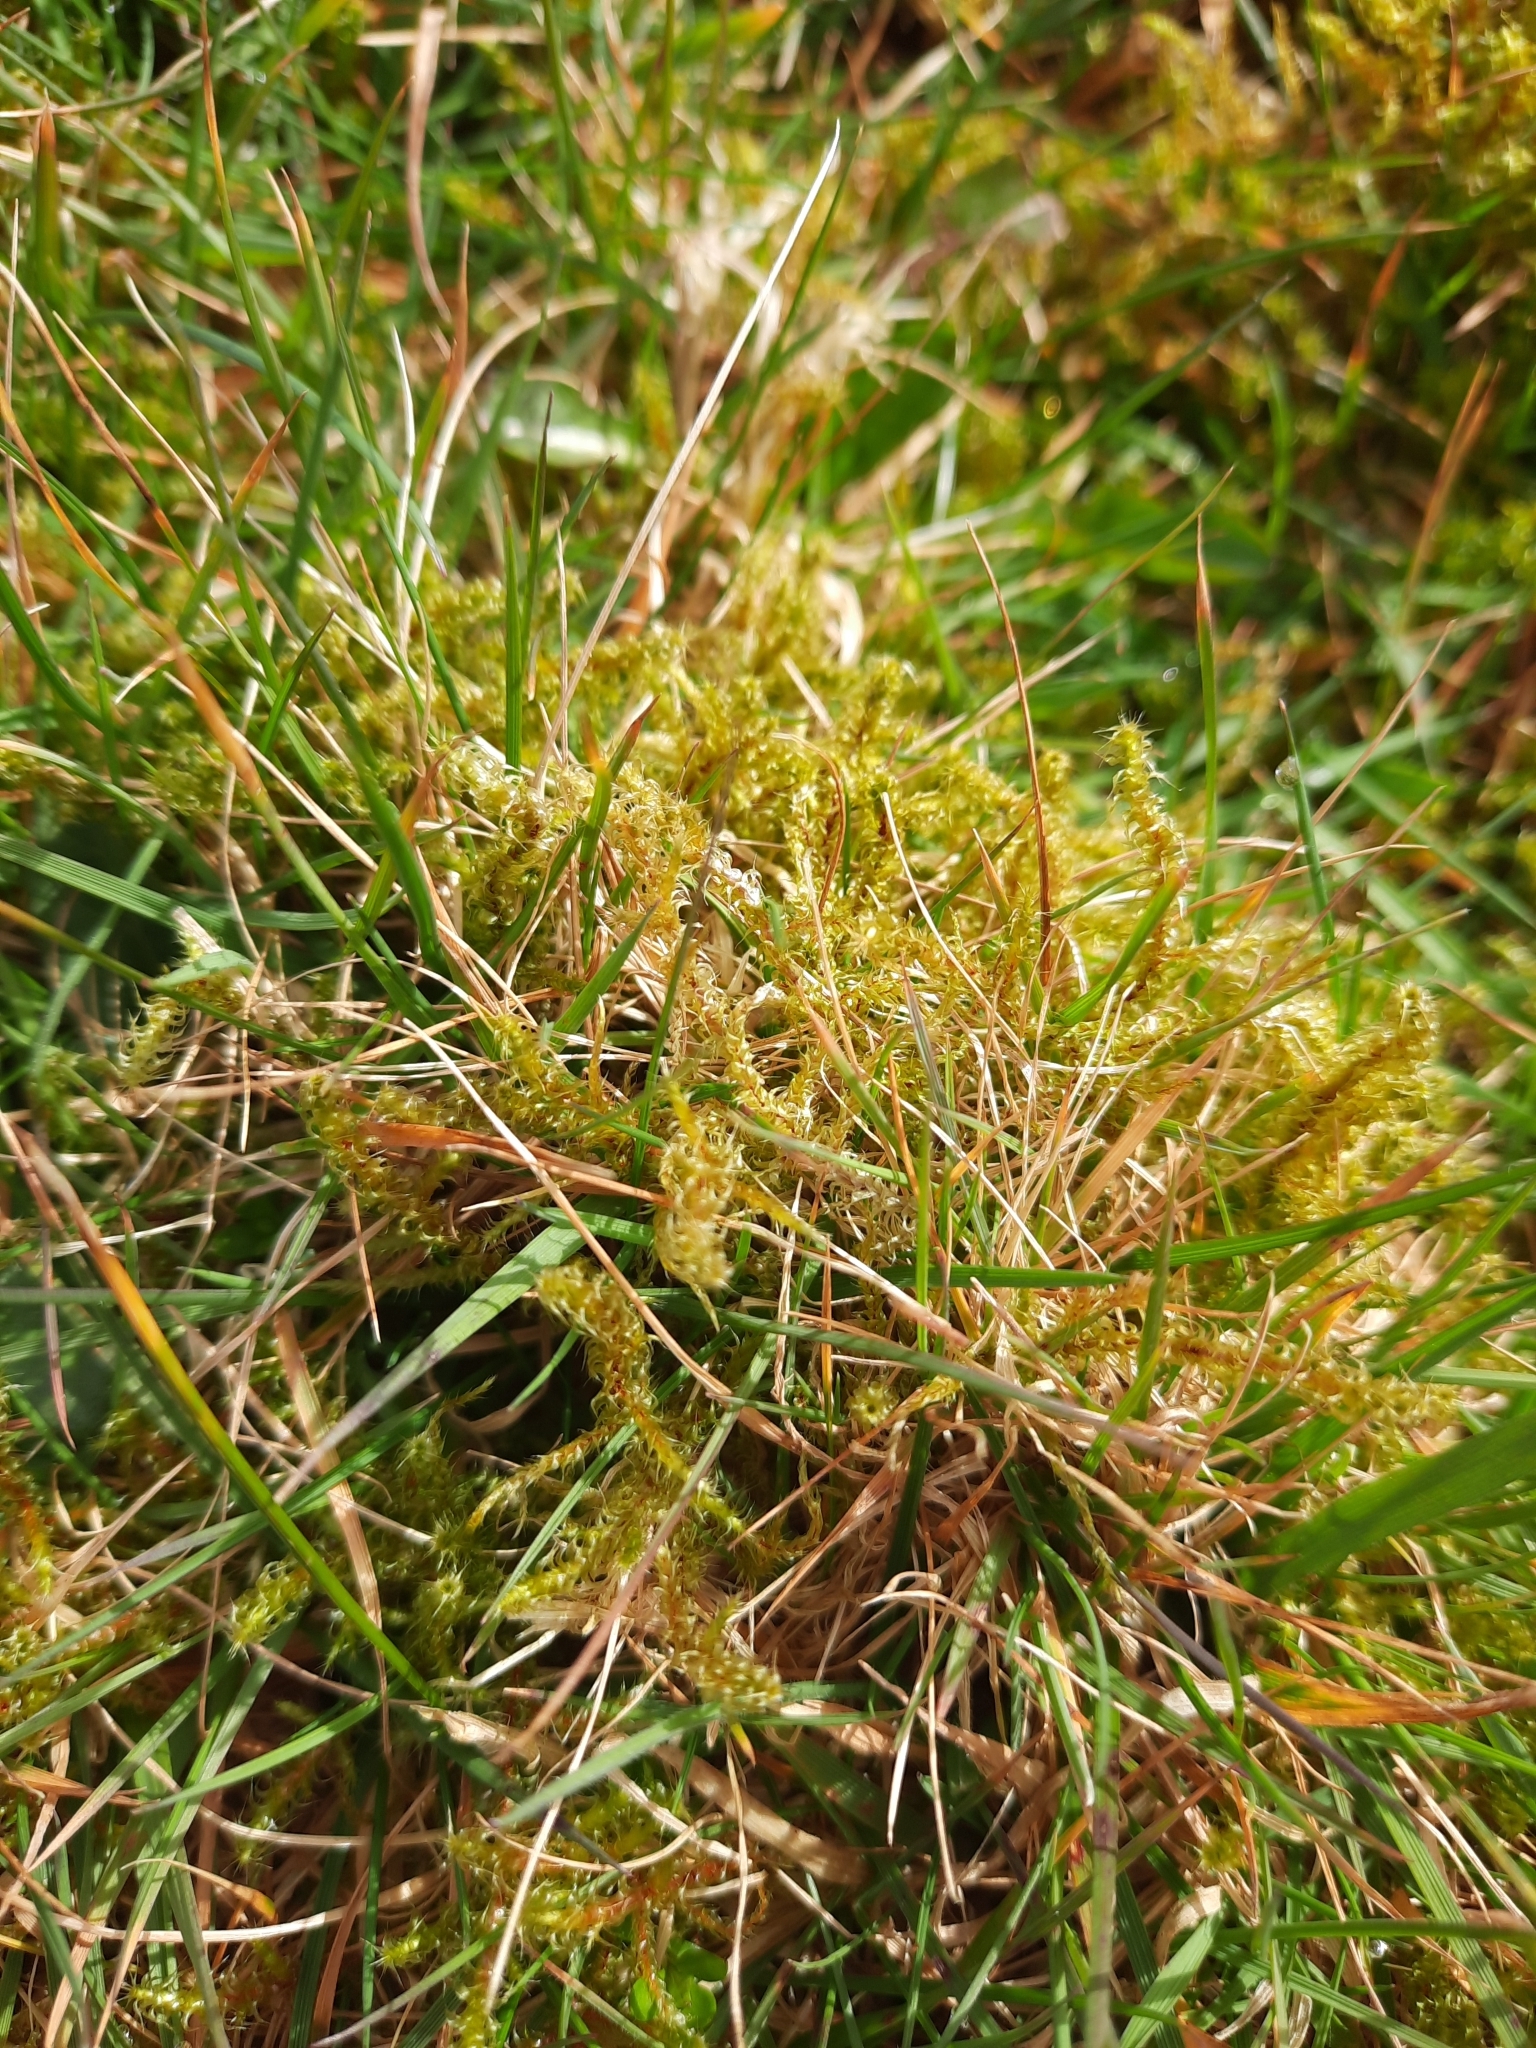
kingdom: Plantae
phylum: Bryophyta
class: Bryopsida
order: Hypnales
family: Hylocomiaceae
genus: Rhytidiadelphus
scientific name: Rhytidiadelphus squarrosus
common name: Springy turf-moss
